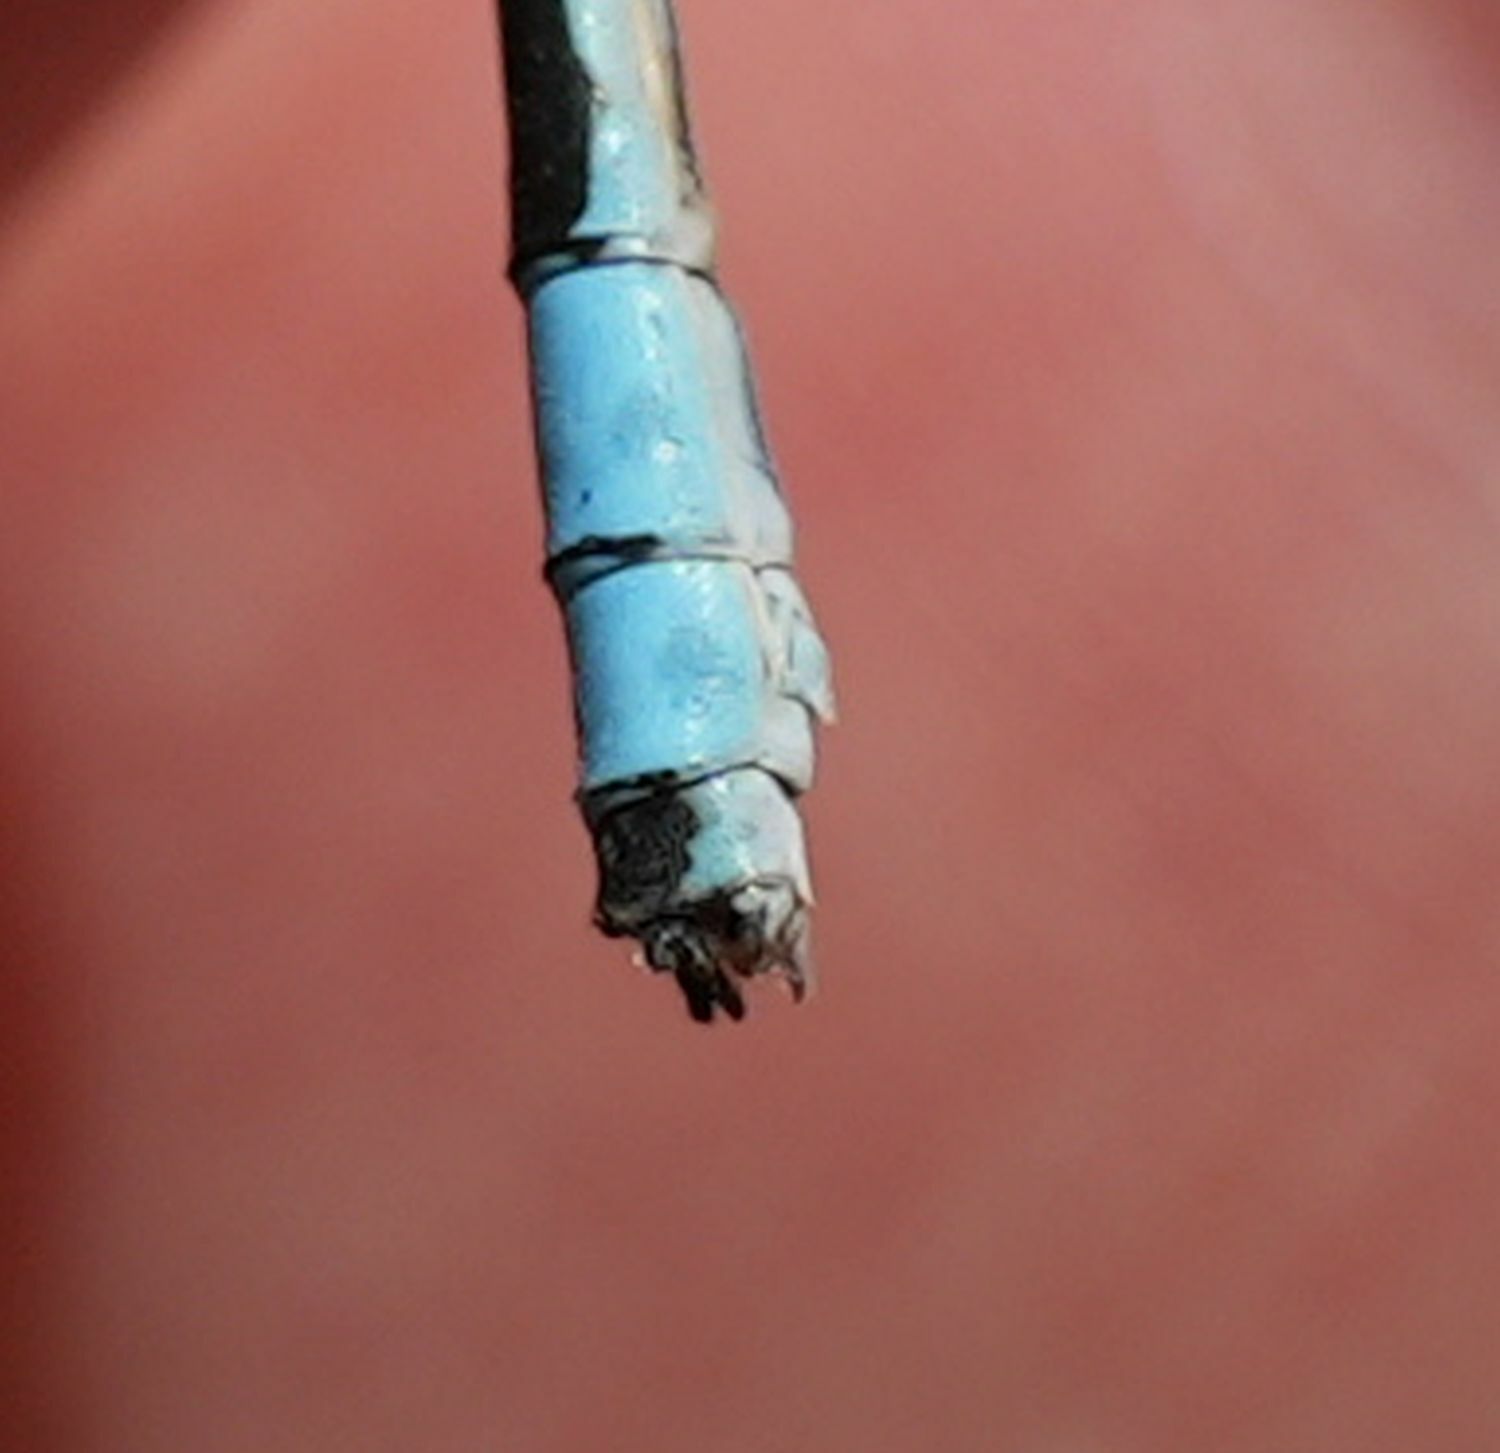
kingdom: Animalia
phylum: Arthropoda
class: Insecta
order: Odonata
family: Coenagrionidae
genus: Enallagma
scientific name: Enallagma ebrium
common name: Marsh bluet
